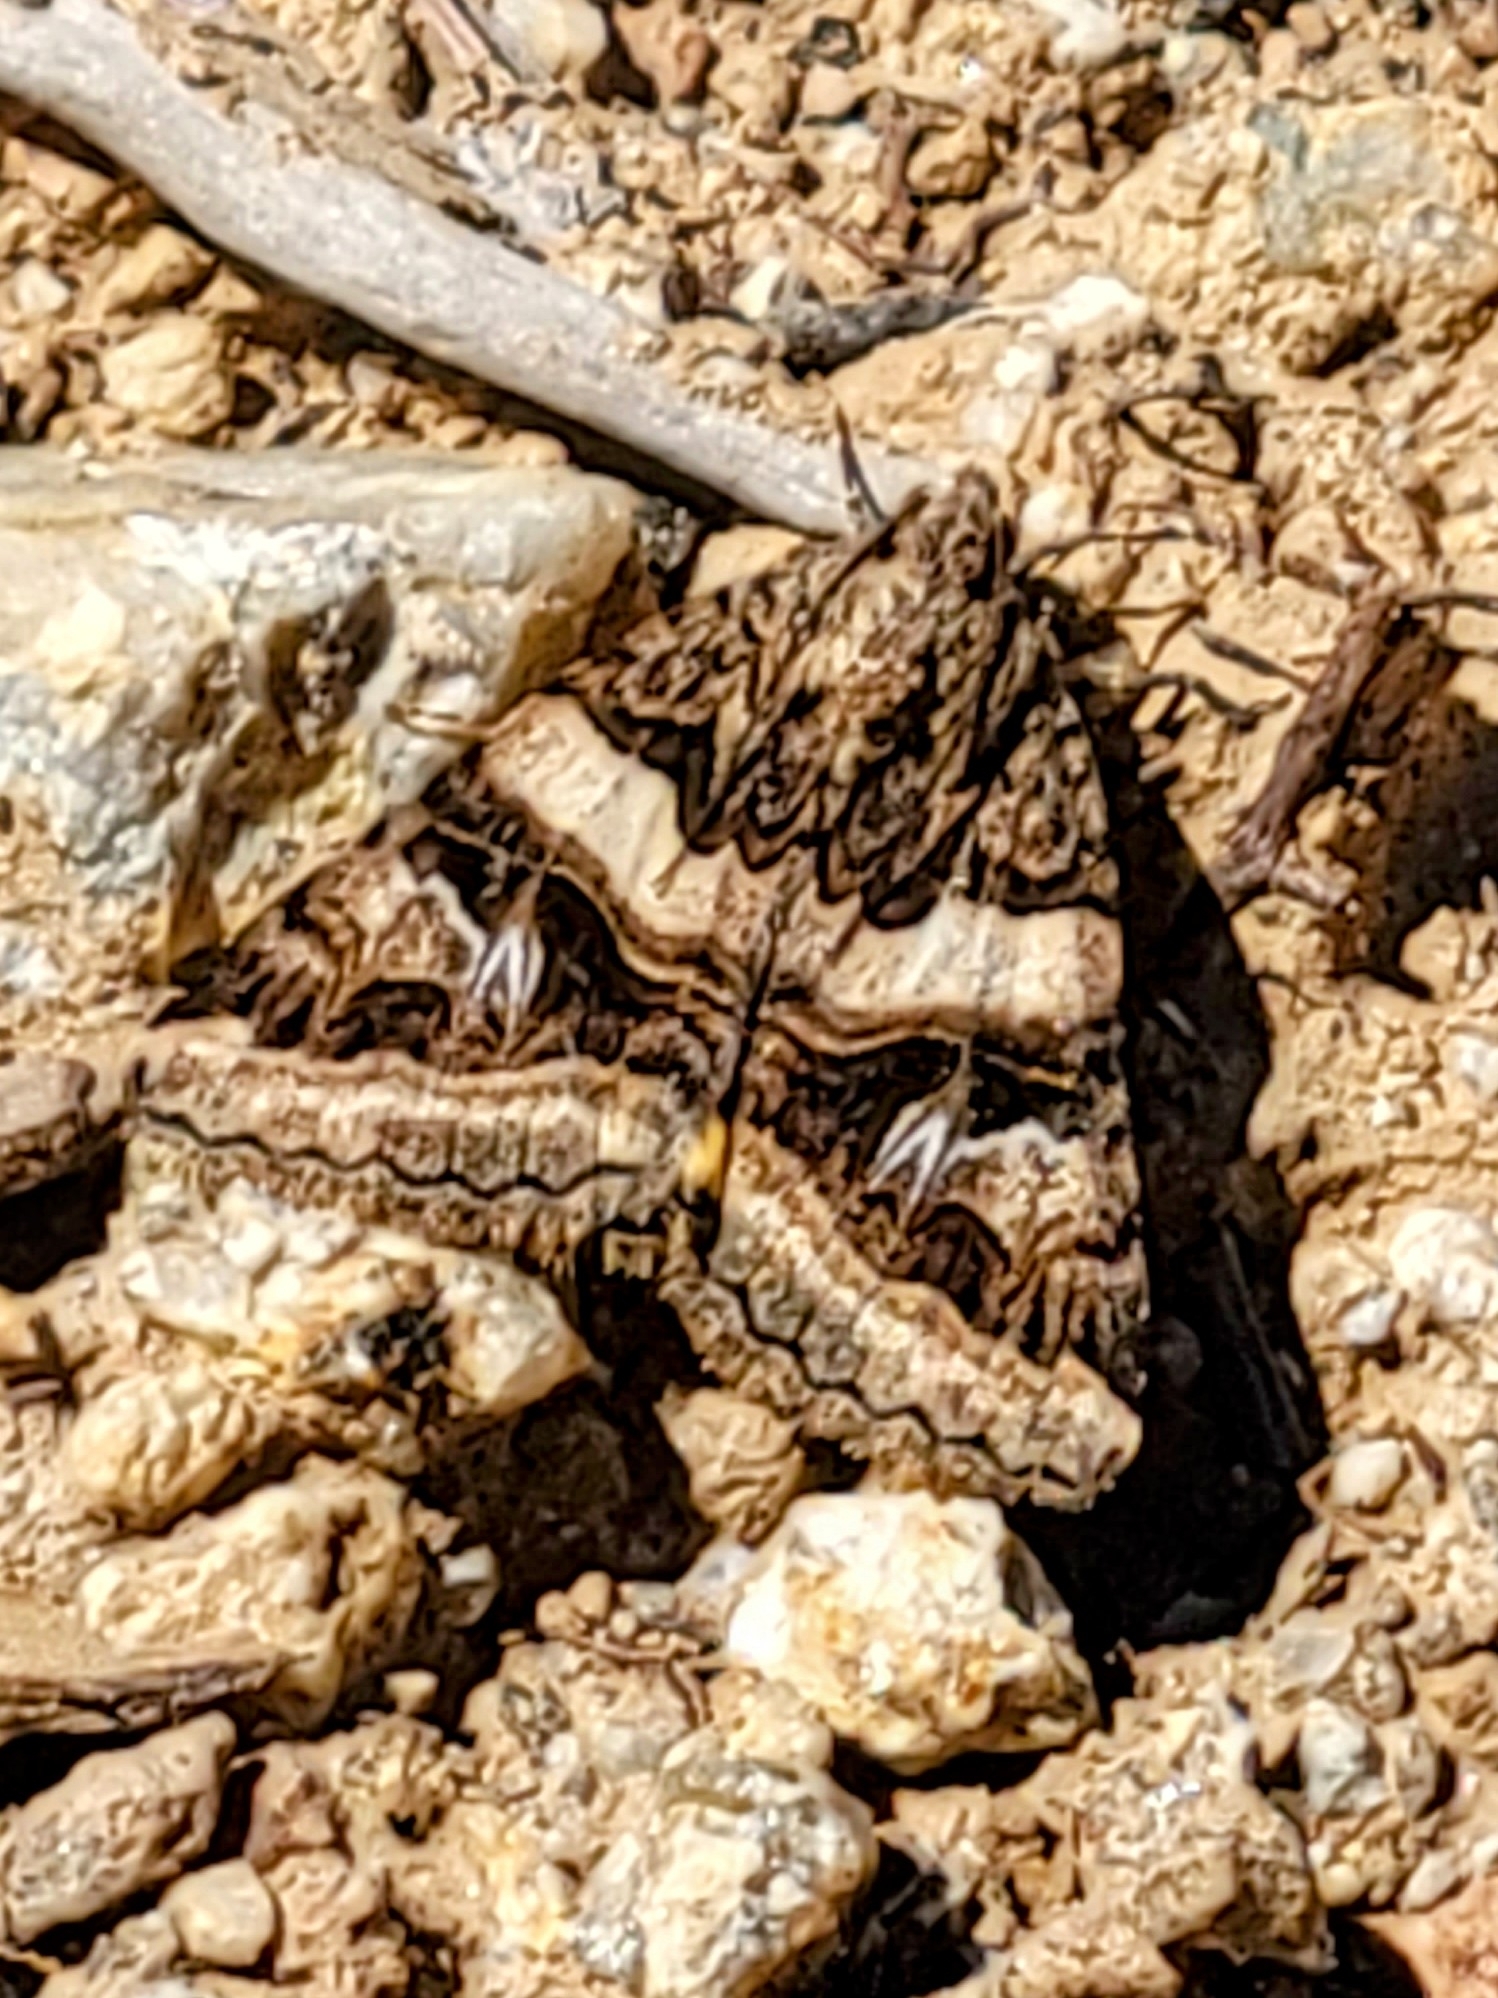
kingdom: Animalia
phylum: Arthropoda
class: Insecta
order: Lepidoptera
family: Erebidae
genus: Drasteria
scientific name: Drasteria divergens
